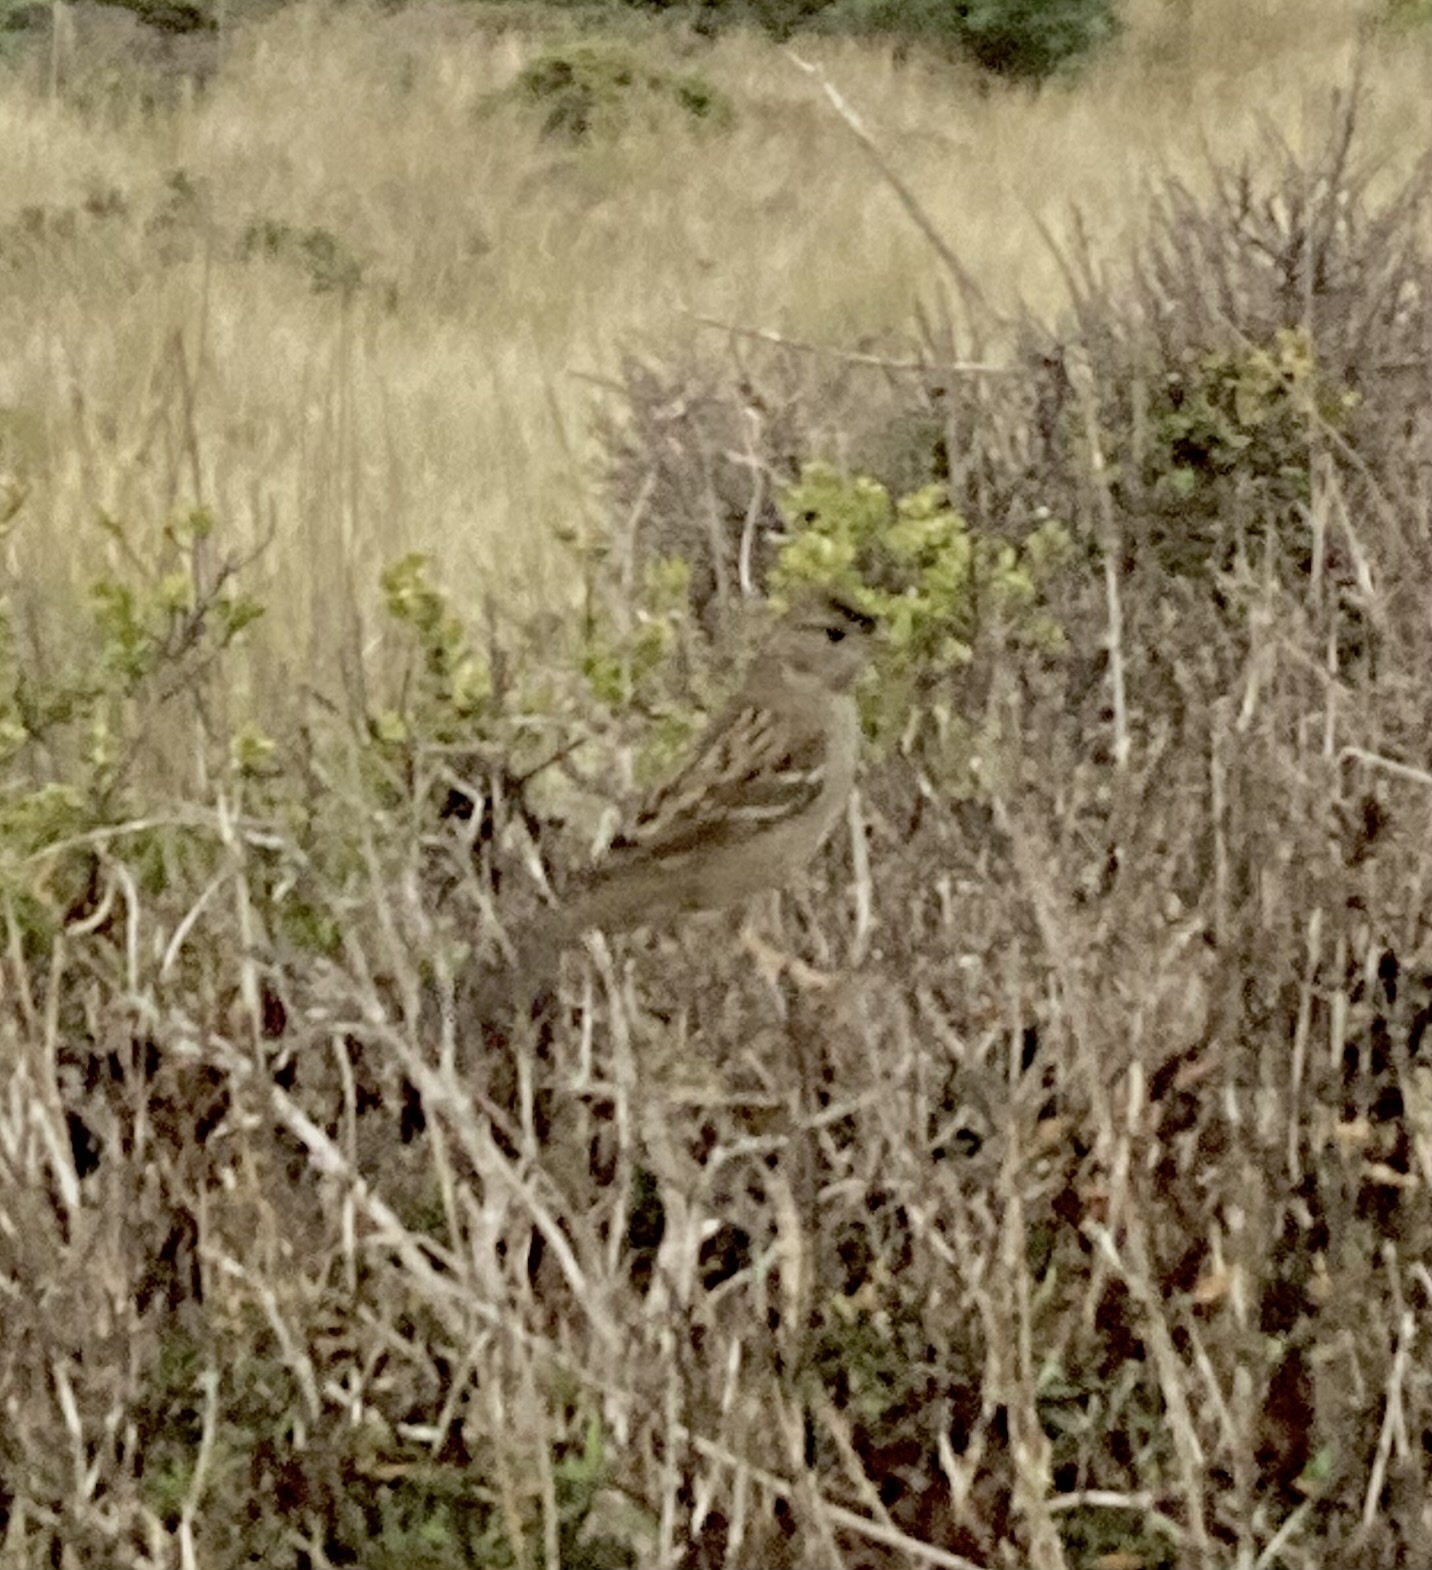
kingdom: Animalia
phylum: Chordata
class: Aves
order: Passeriformes
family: Passerellidae
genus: Zonotrichia
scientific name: Zonotrichia atricapilla
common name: Golden-crowned sparrow
